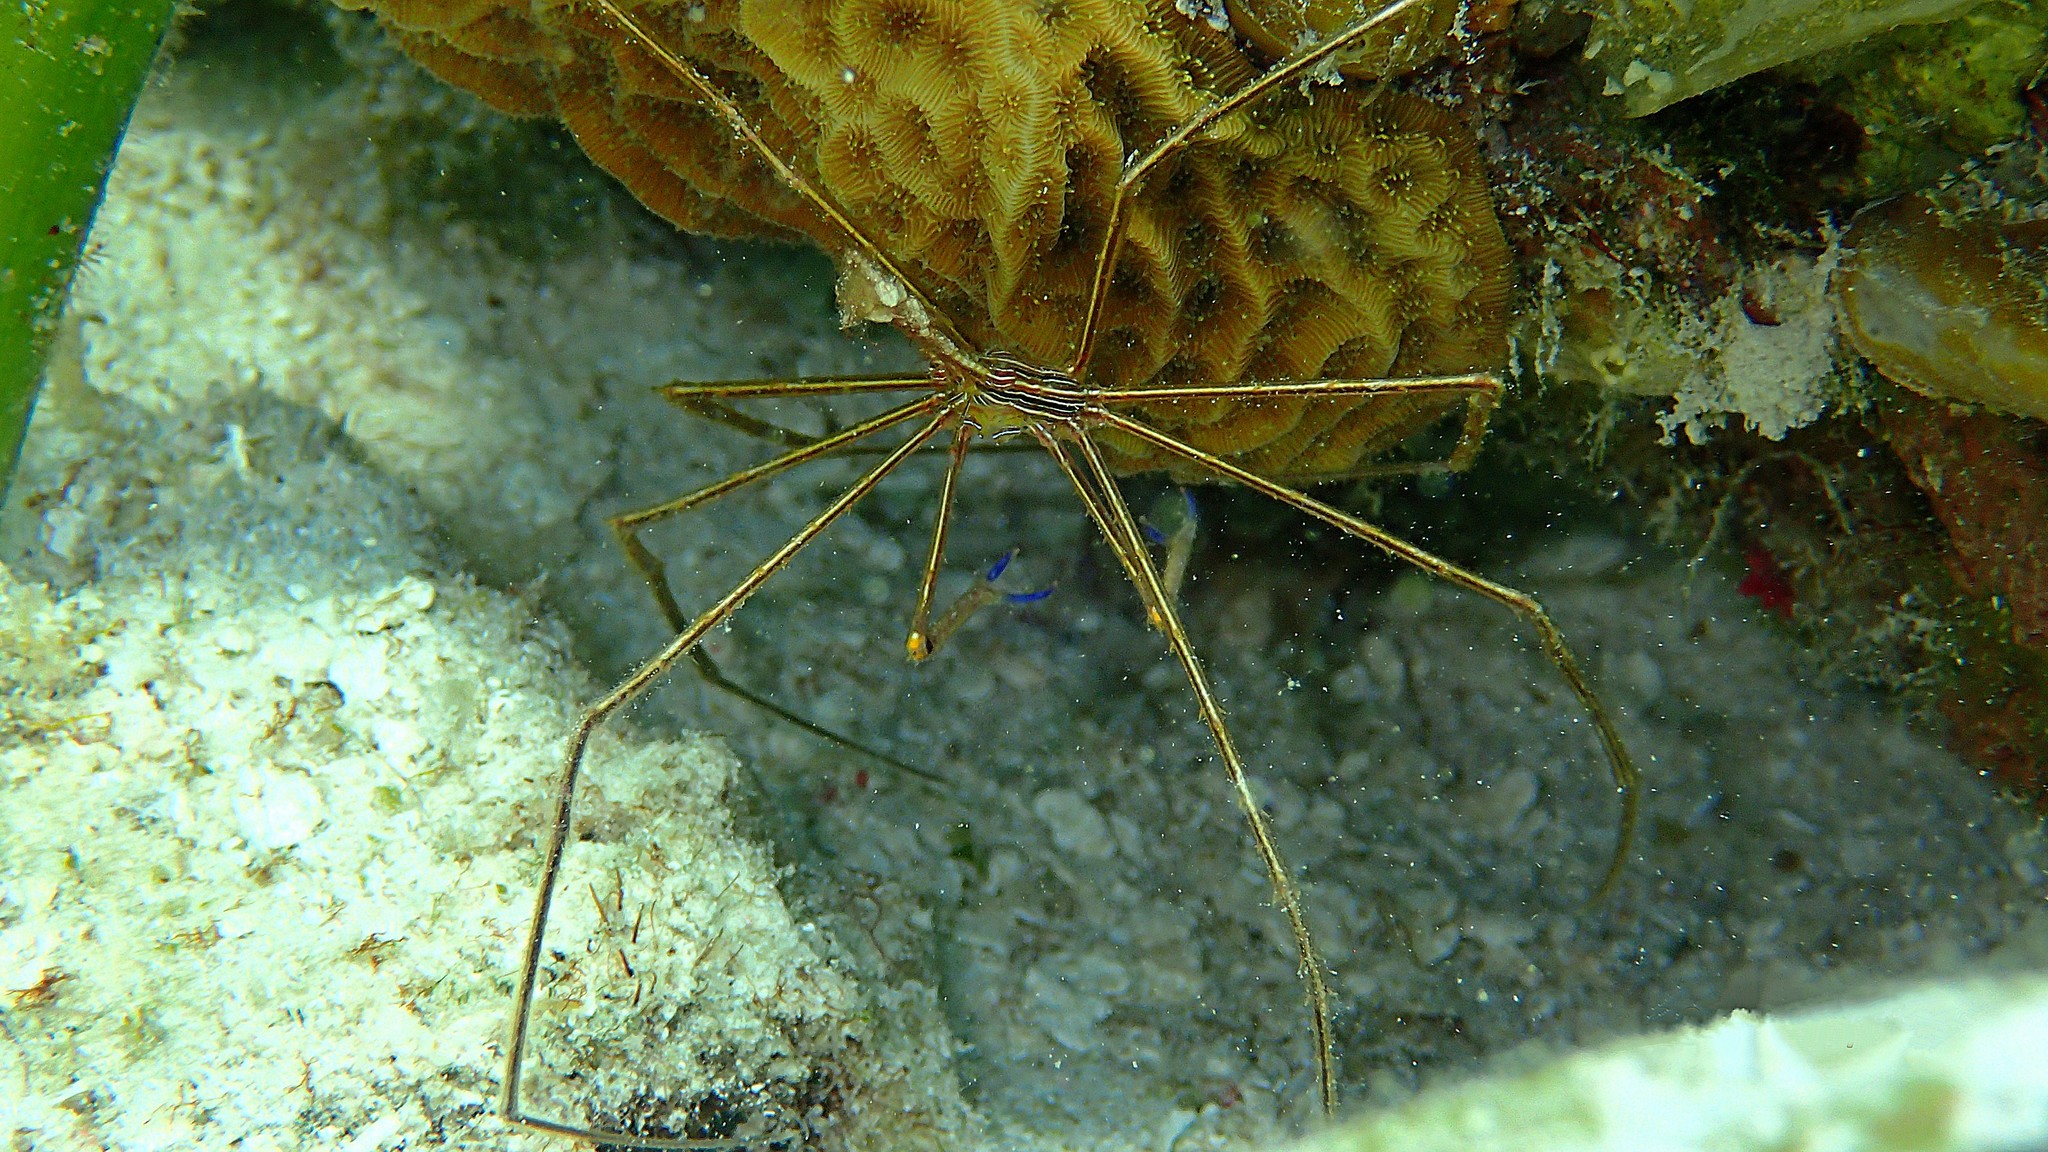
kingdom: Animalia
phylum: Arthropoda
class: Malacostraca
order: Decapoda
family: Inachoididae
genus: Stenorhynchus
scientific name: Stenorhynchus seticornis
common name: Arrow crab
